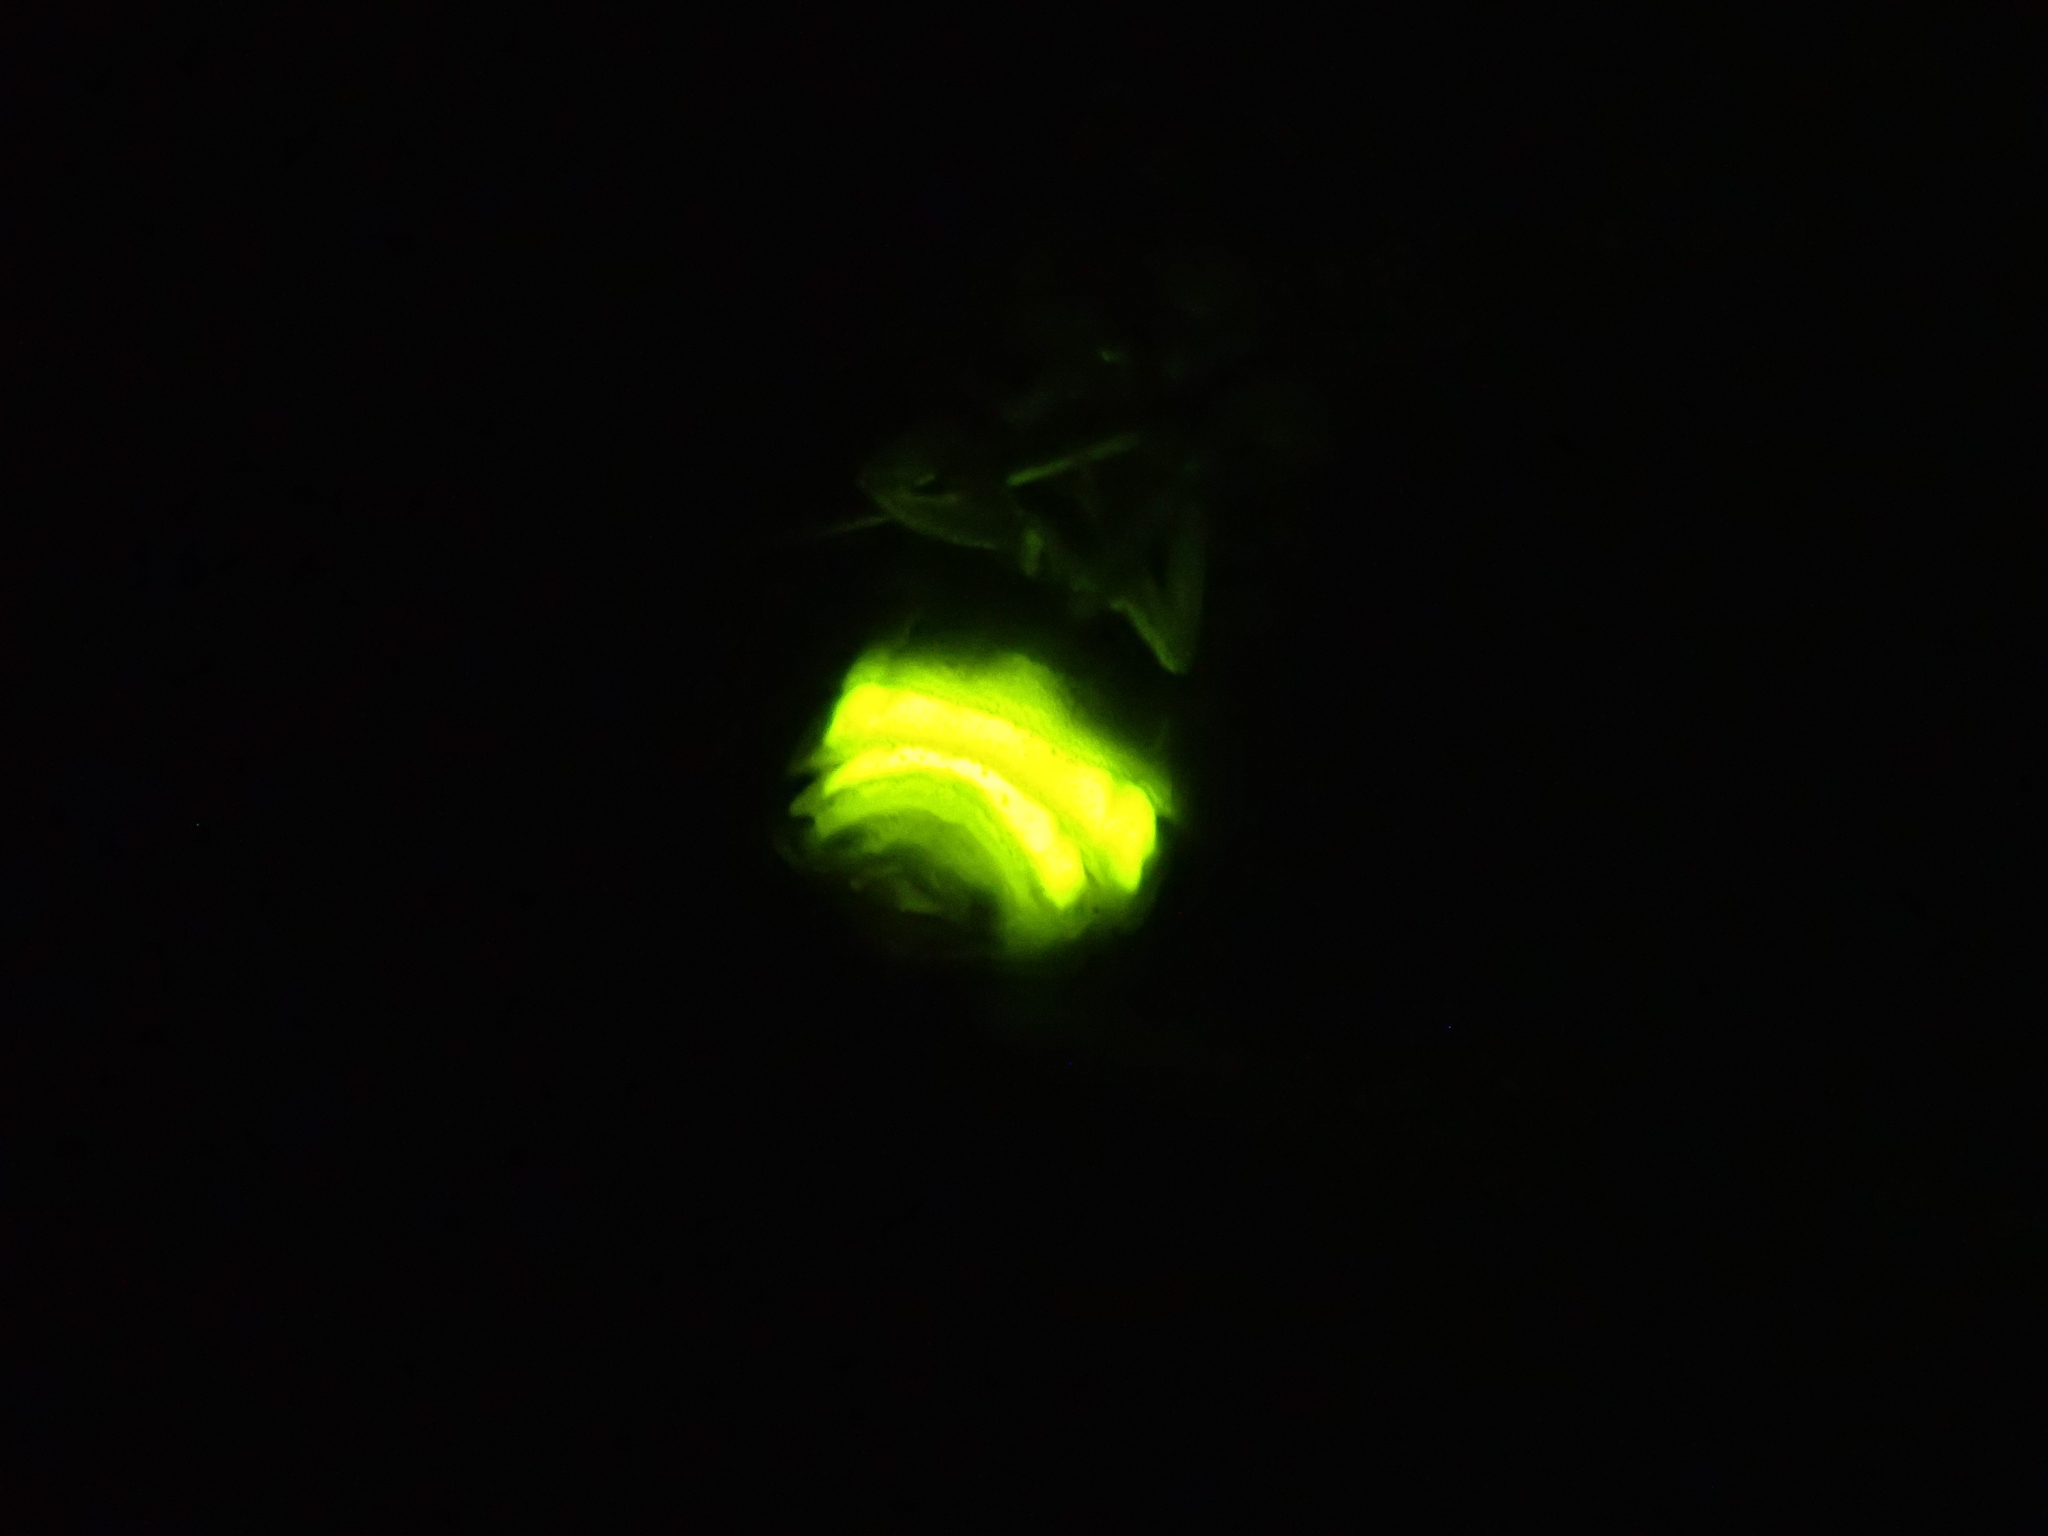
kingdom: Animalia
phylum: Arthropoda
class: Insecta
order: Coleoptera
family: Lampyridae
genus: Lampyris
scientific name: Lampyris noctiluca
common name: Glow-worm
